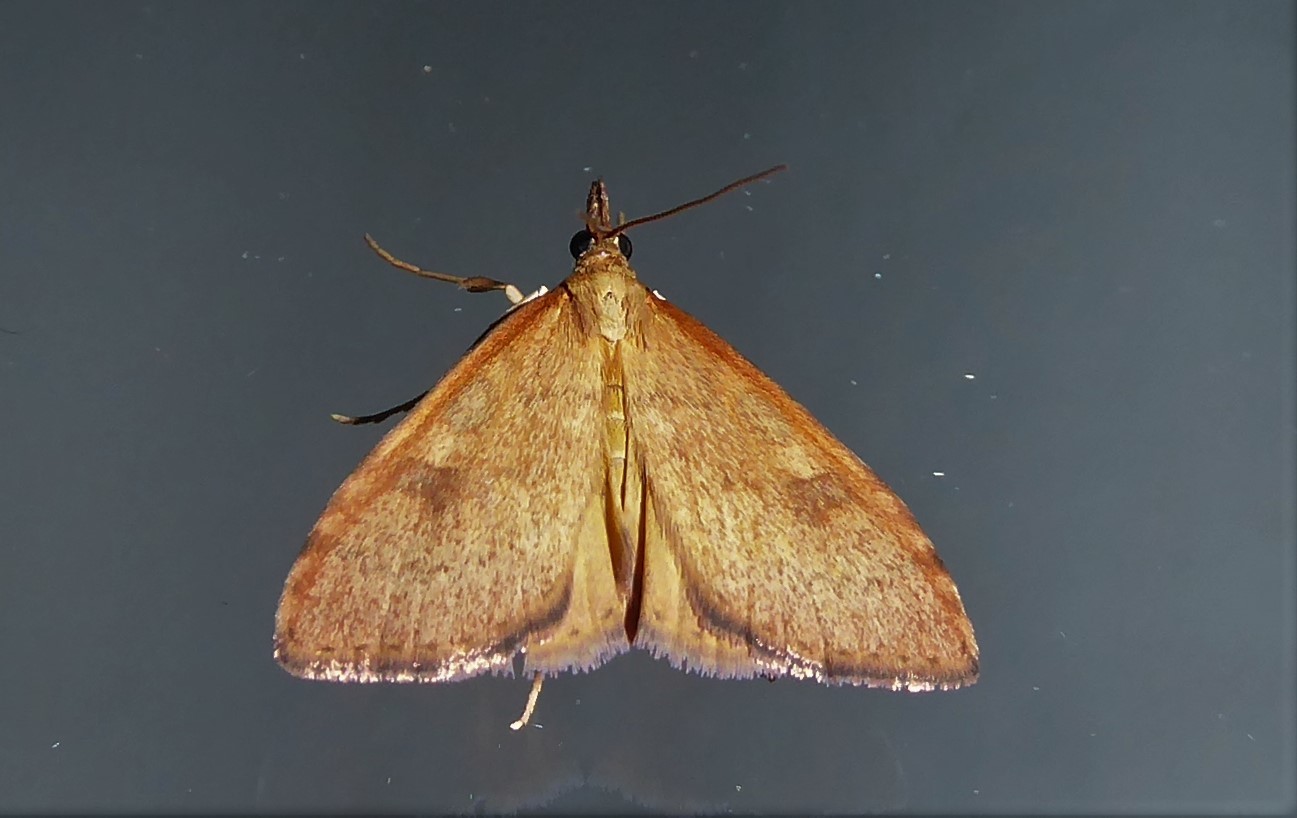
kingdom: Animalia
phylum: Arthropoda
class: Insecta
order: Lepidoptera
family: Crambidae
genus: Udea
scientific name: Udea Mnesictena flavidalis
